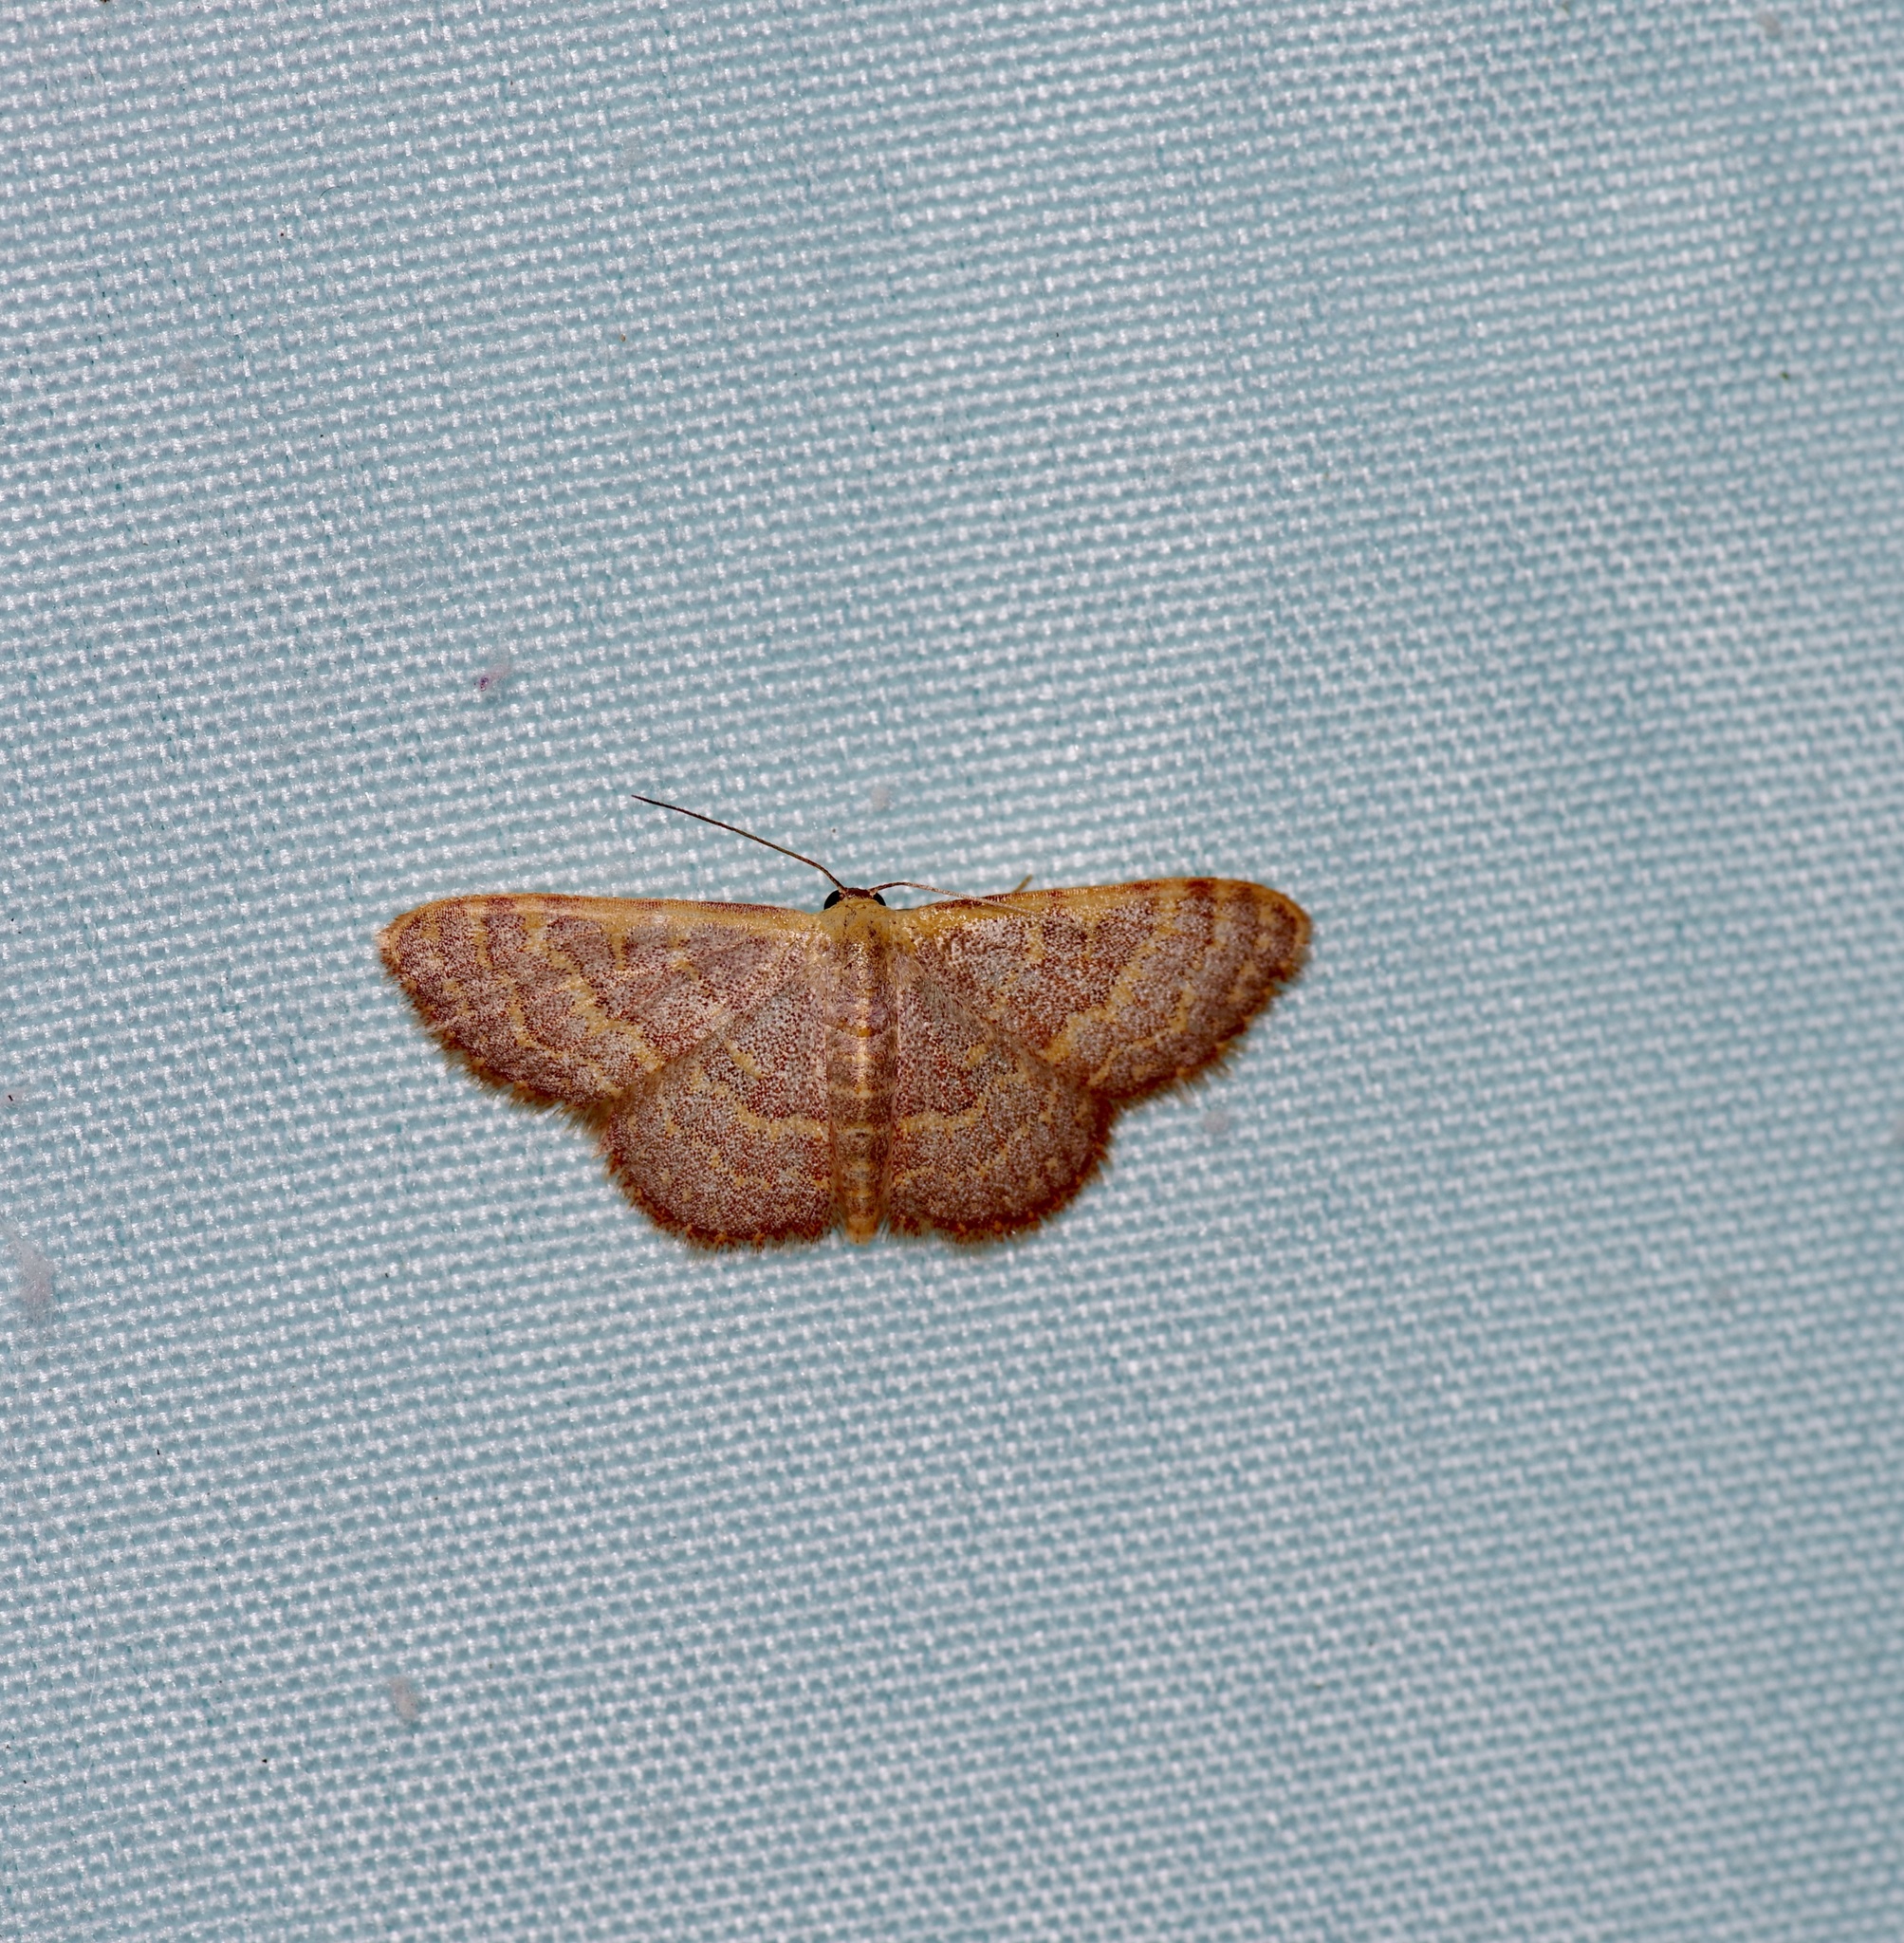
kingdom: Animalia
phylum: Arthropoda
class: Insecta
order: Lepidoptera
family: Geometridae
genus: Leptostales
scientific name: Leptostales pannaria
